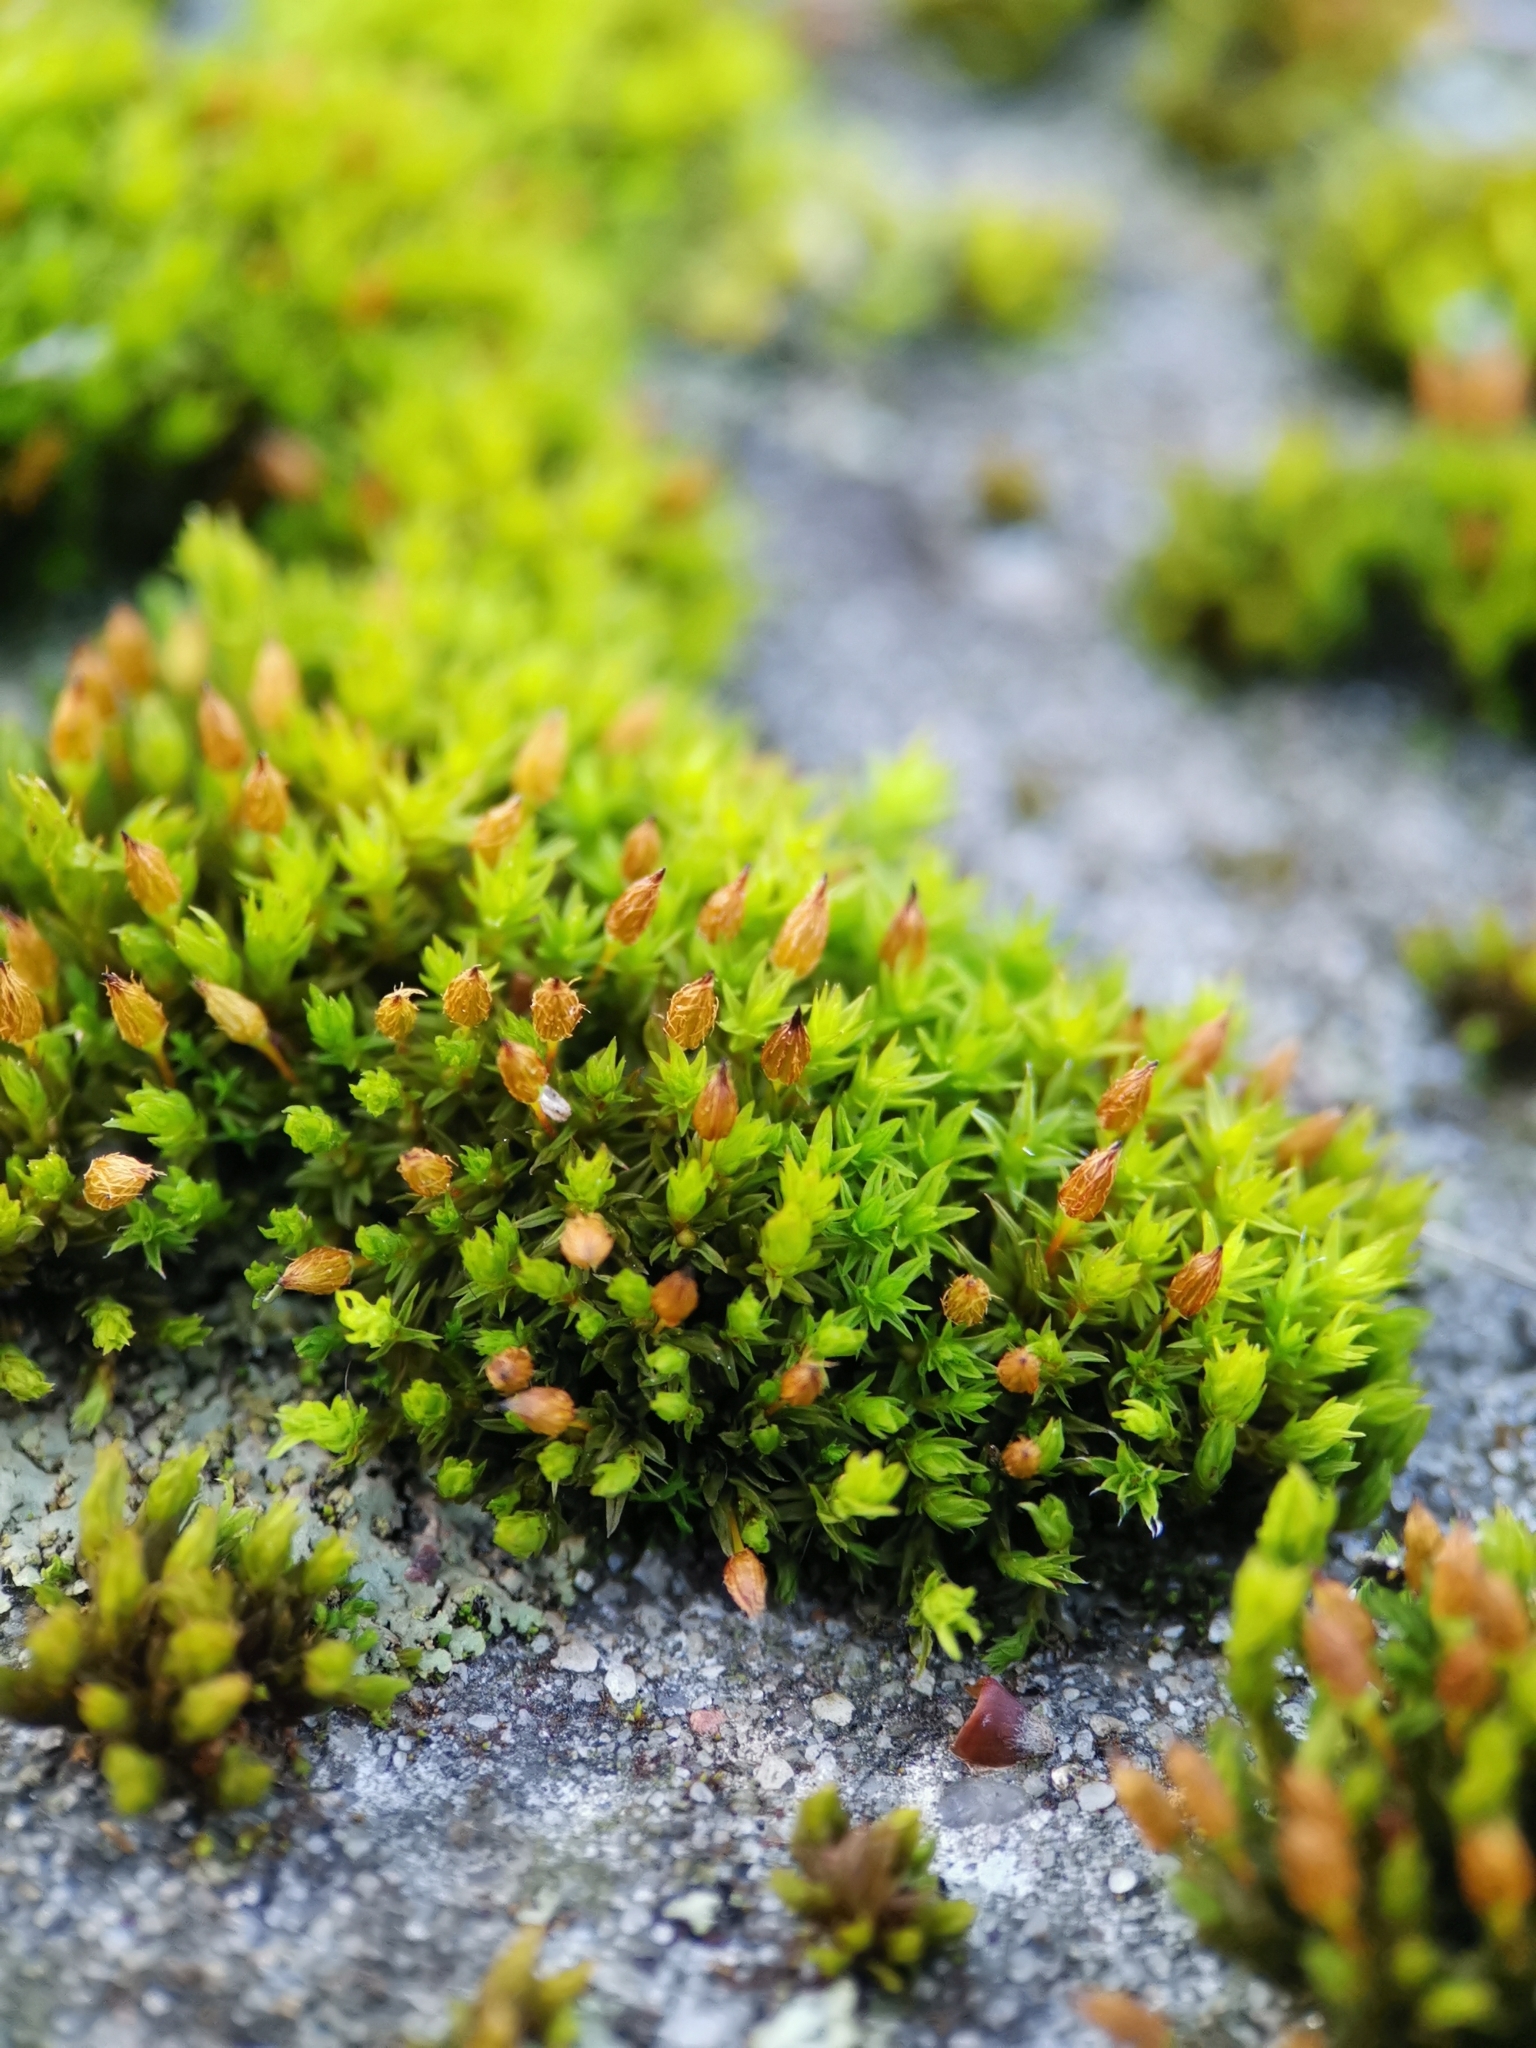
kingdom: Plantae
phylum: Bryophyta
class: Bryopsida
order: Orthotrichales
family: Orthotrichaceae
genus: Orthotrichum
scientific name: Orthotrichum anomalum
